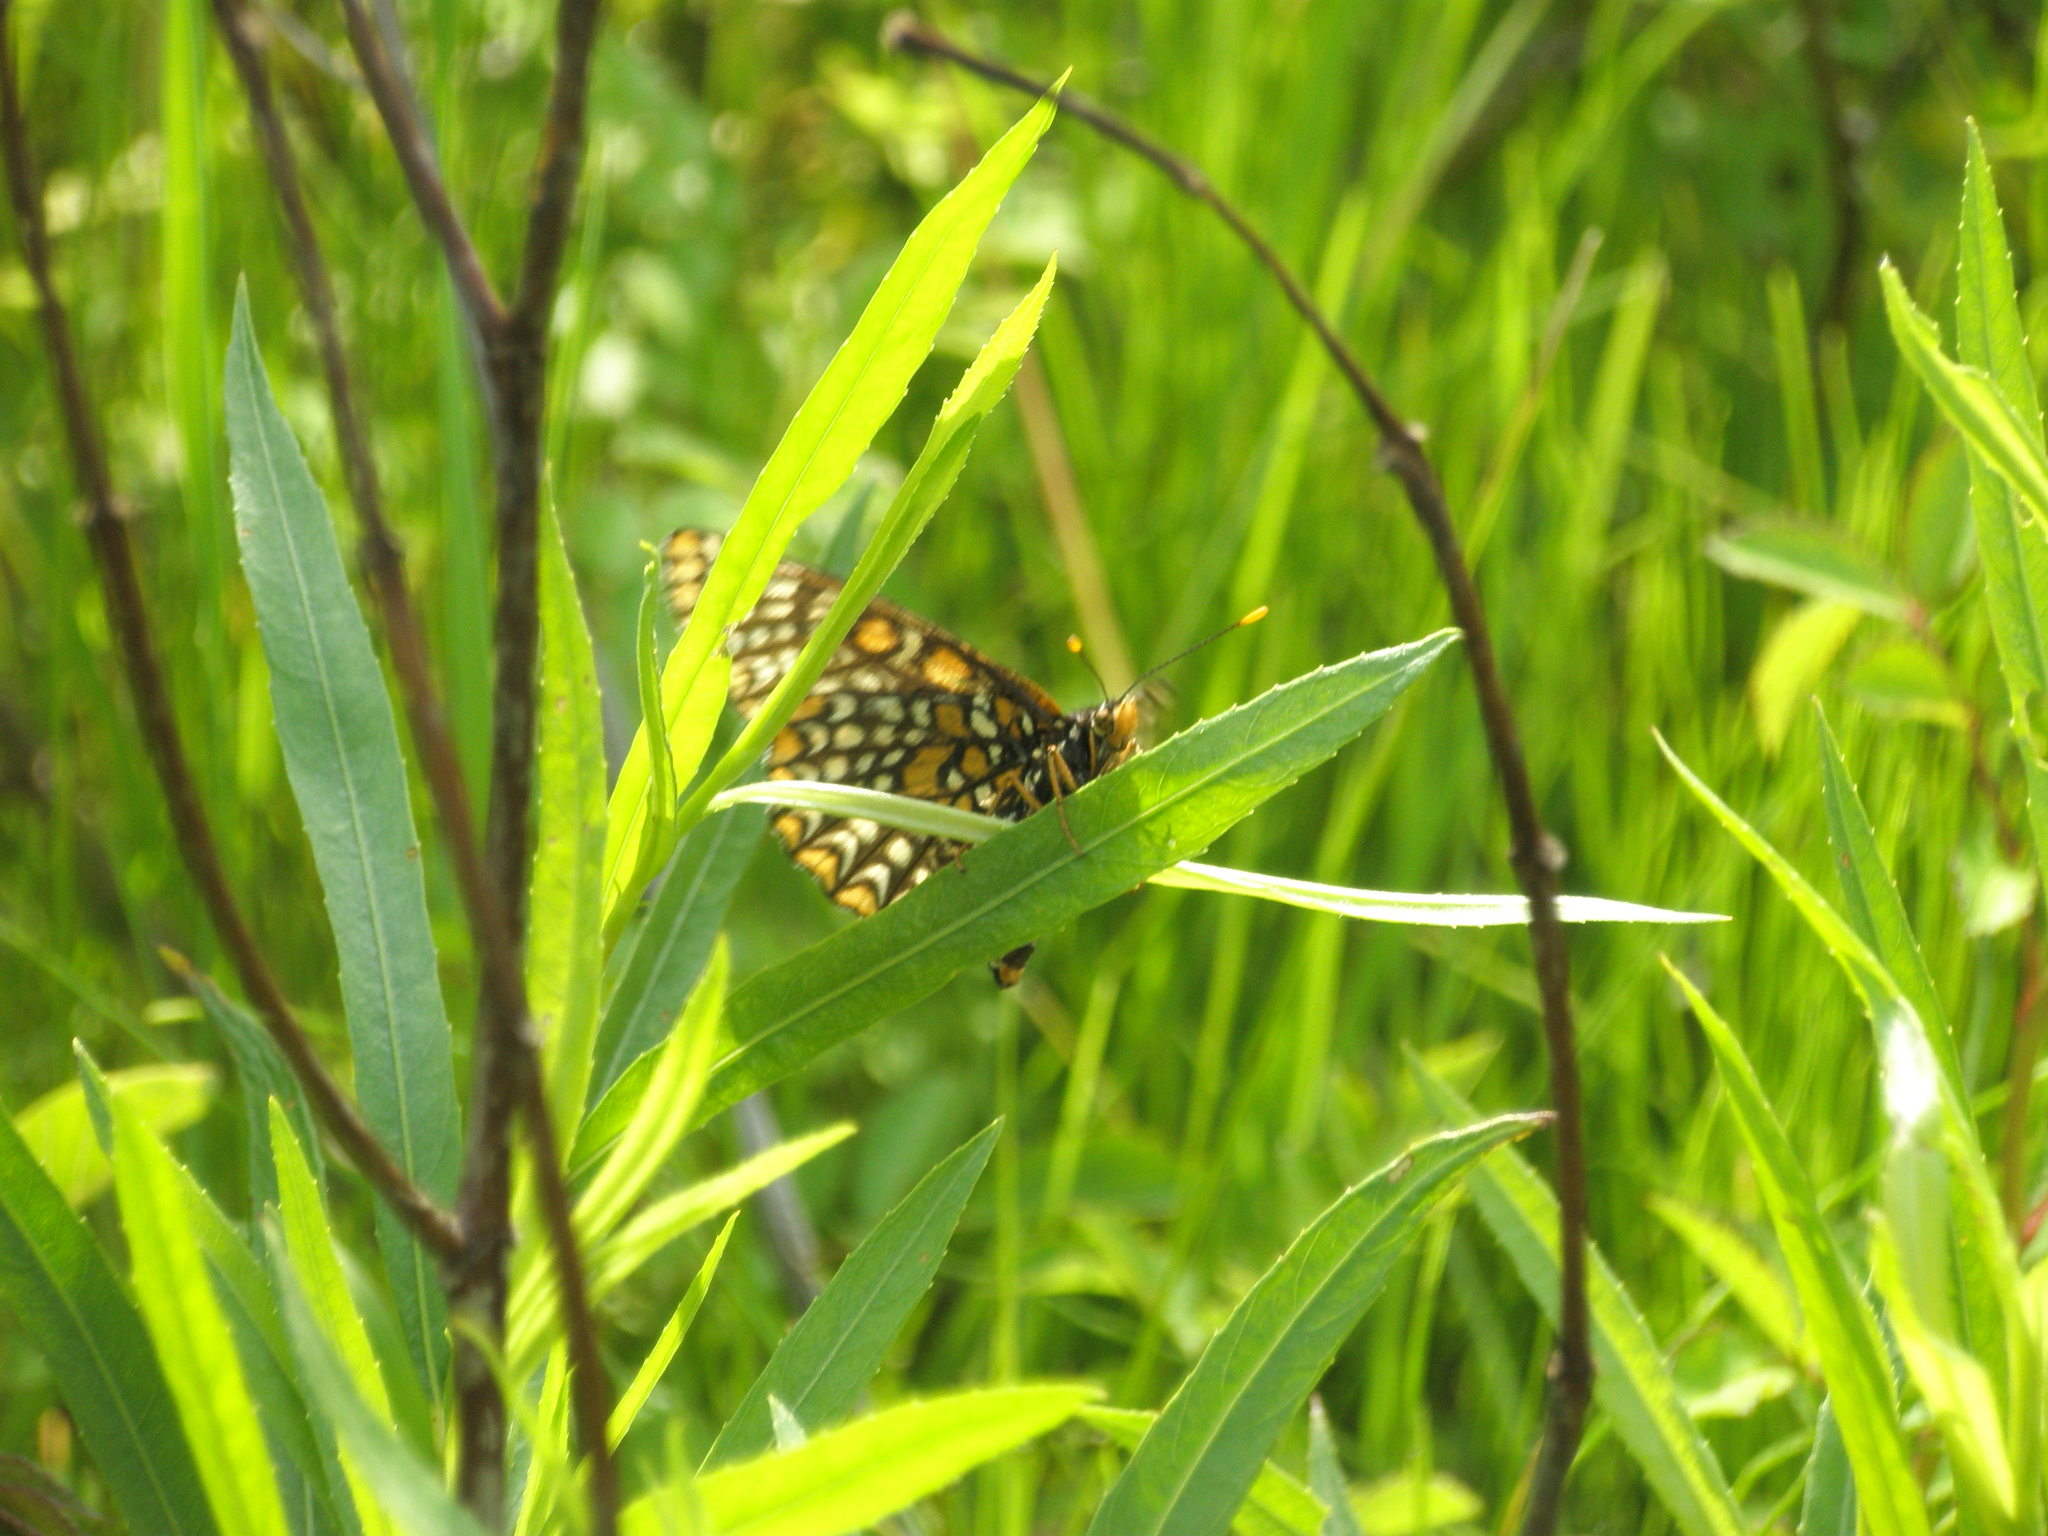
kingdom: Animalia
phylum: Arthropoda
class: Insecta
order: Lepidoptera
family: Nymphalidae
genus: Euphydryas
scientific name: Euphydryas phaeton
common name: Baltimore checkerspot
